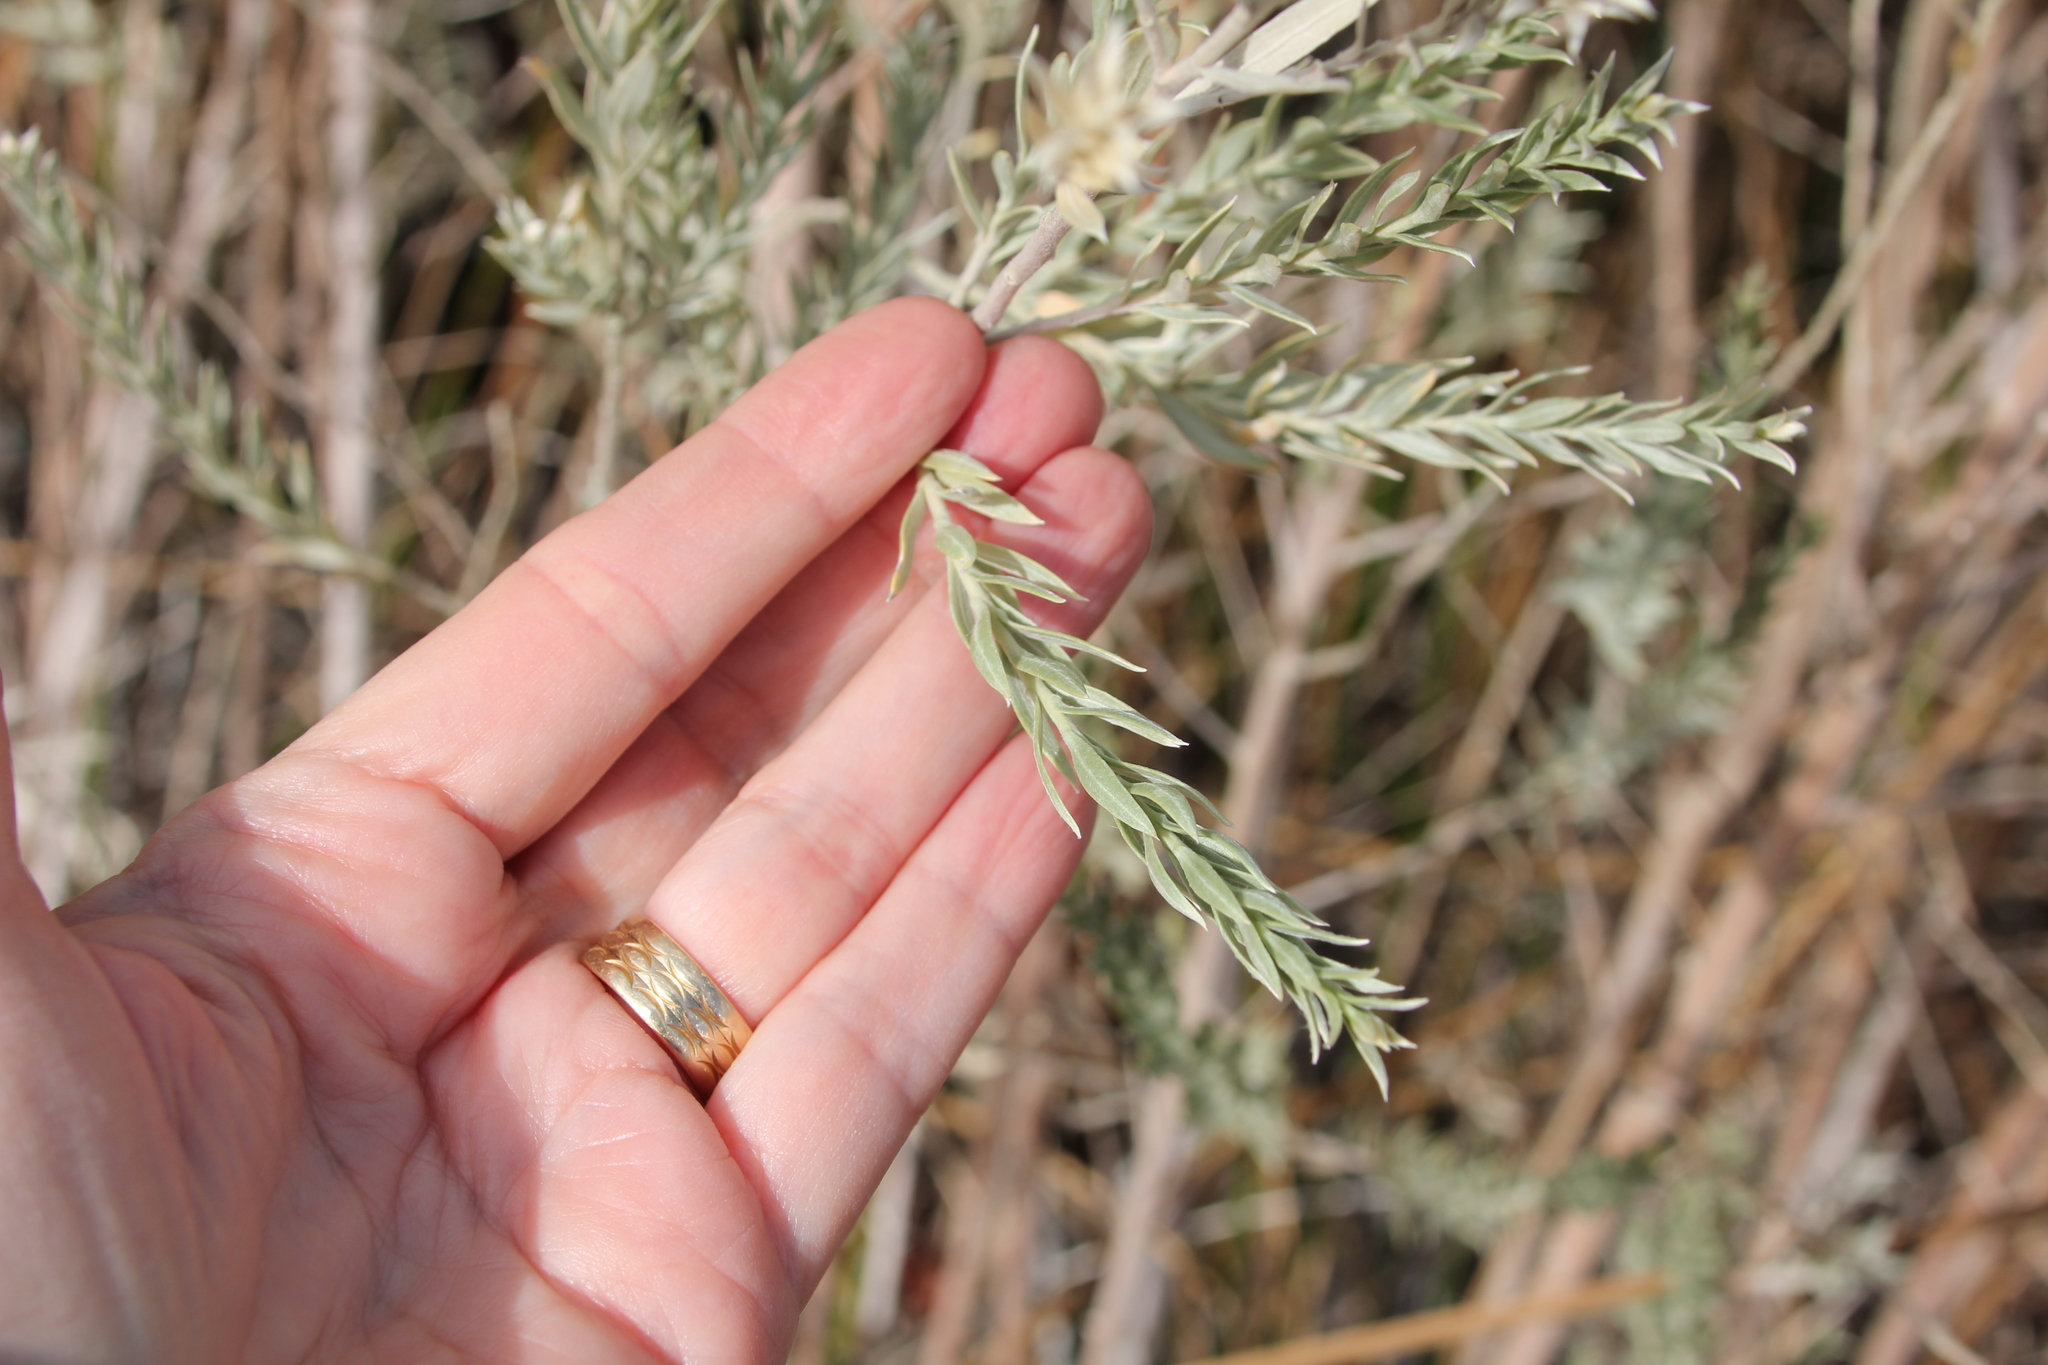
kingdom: Plantae
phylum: Tracheophyta
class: Magnoliopsida
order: Asterales
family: Asteraceae
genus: Pluchea
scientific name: Pluchea sericea
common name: Arrow-weed
